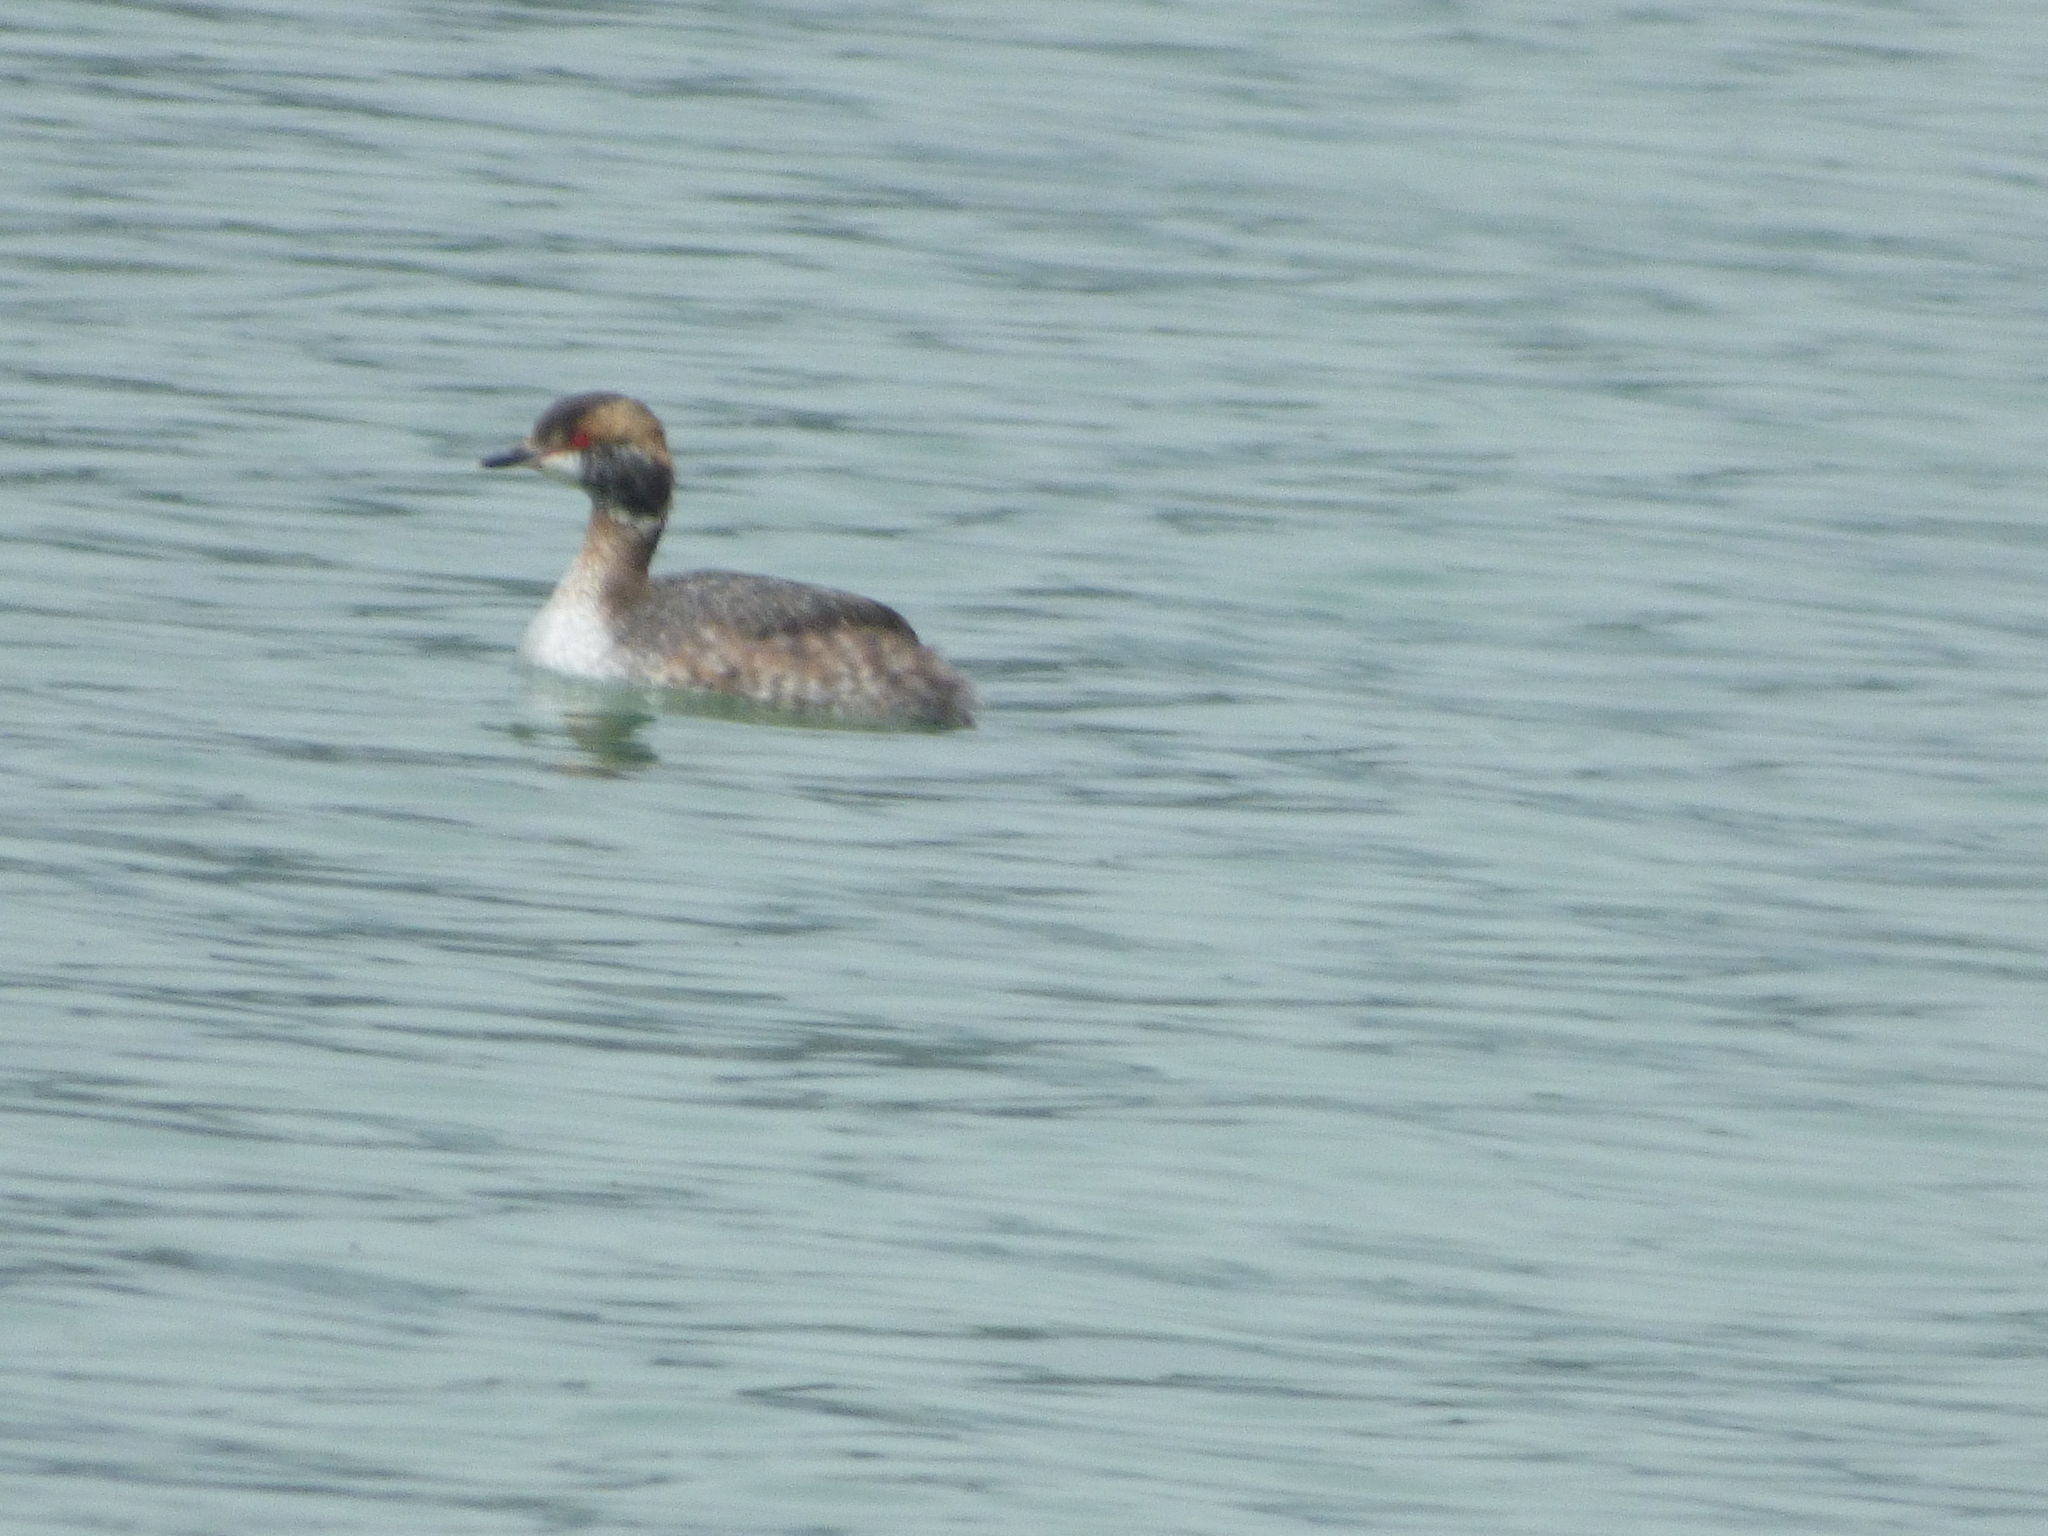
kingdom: Animalia
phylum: Chordata
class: Aves
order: Podicipediformes
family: Podicipedidae
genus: Podiceps
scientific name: Podiceps auritus
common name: Horned grebe
